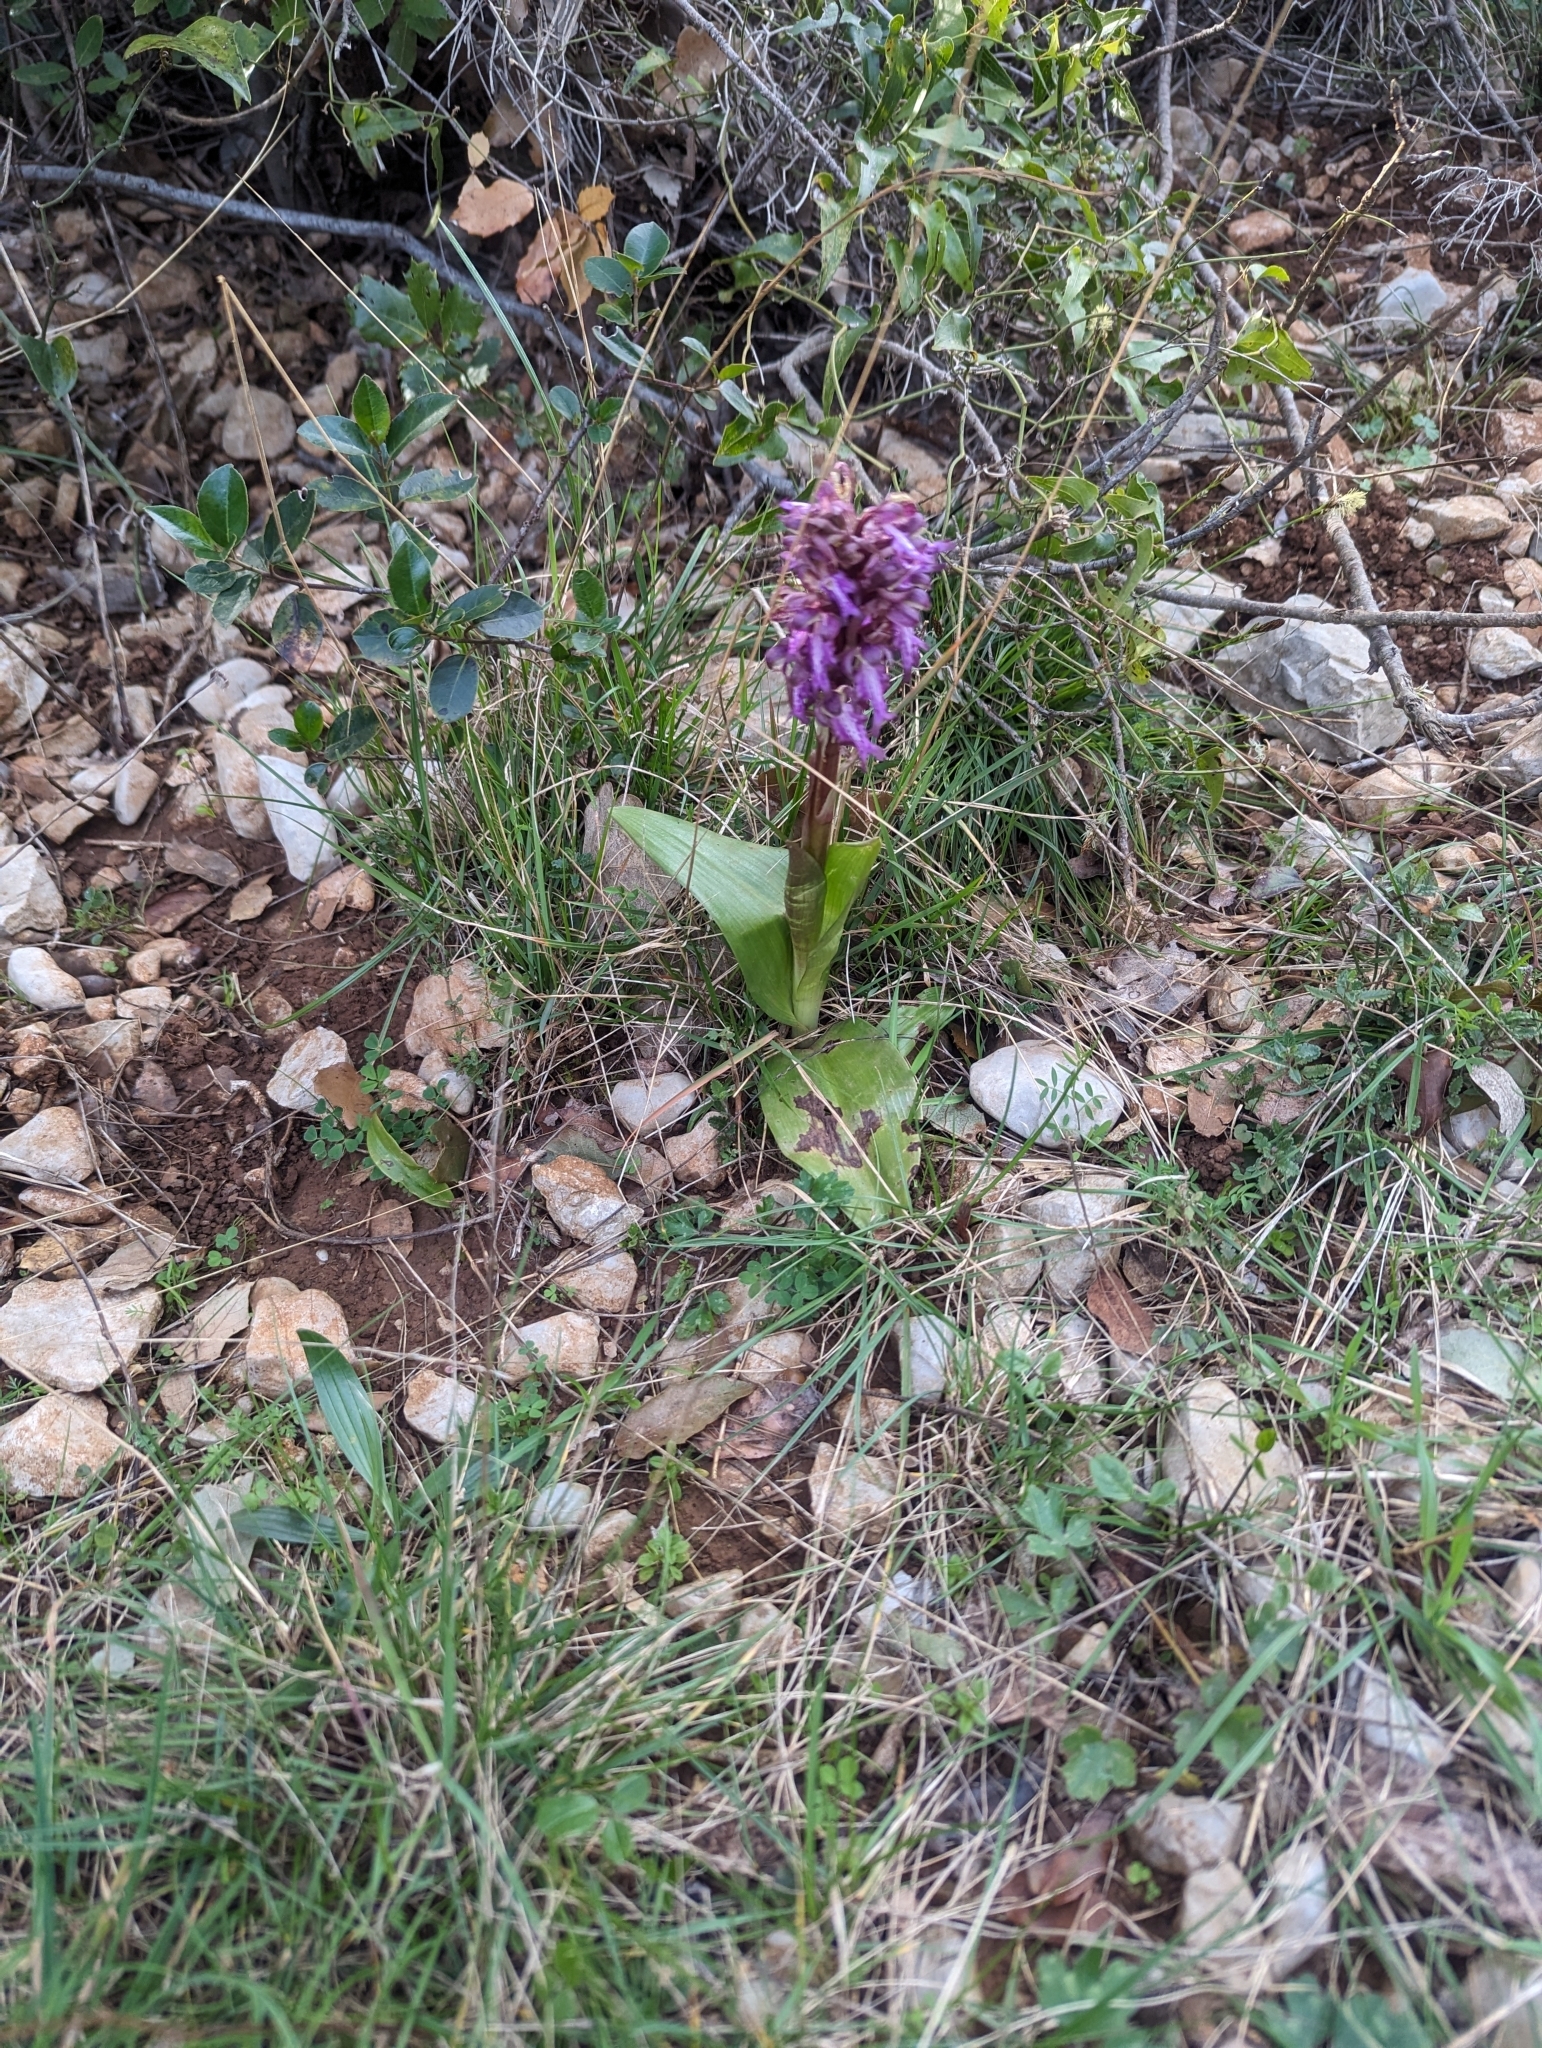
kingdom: Plantae
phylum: Tracheophyta
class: Liliopsida
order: Asparagales
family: Orchidaceae
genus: Himantoglossum
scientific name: Himantoglossum robertianum
